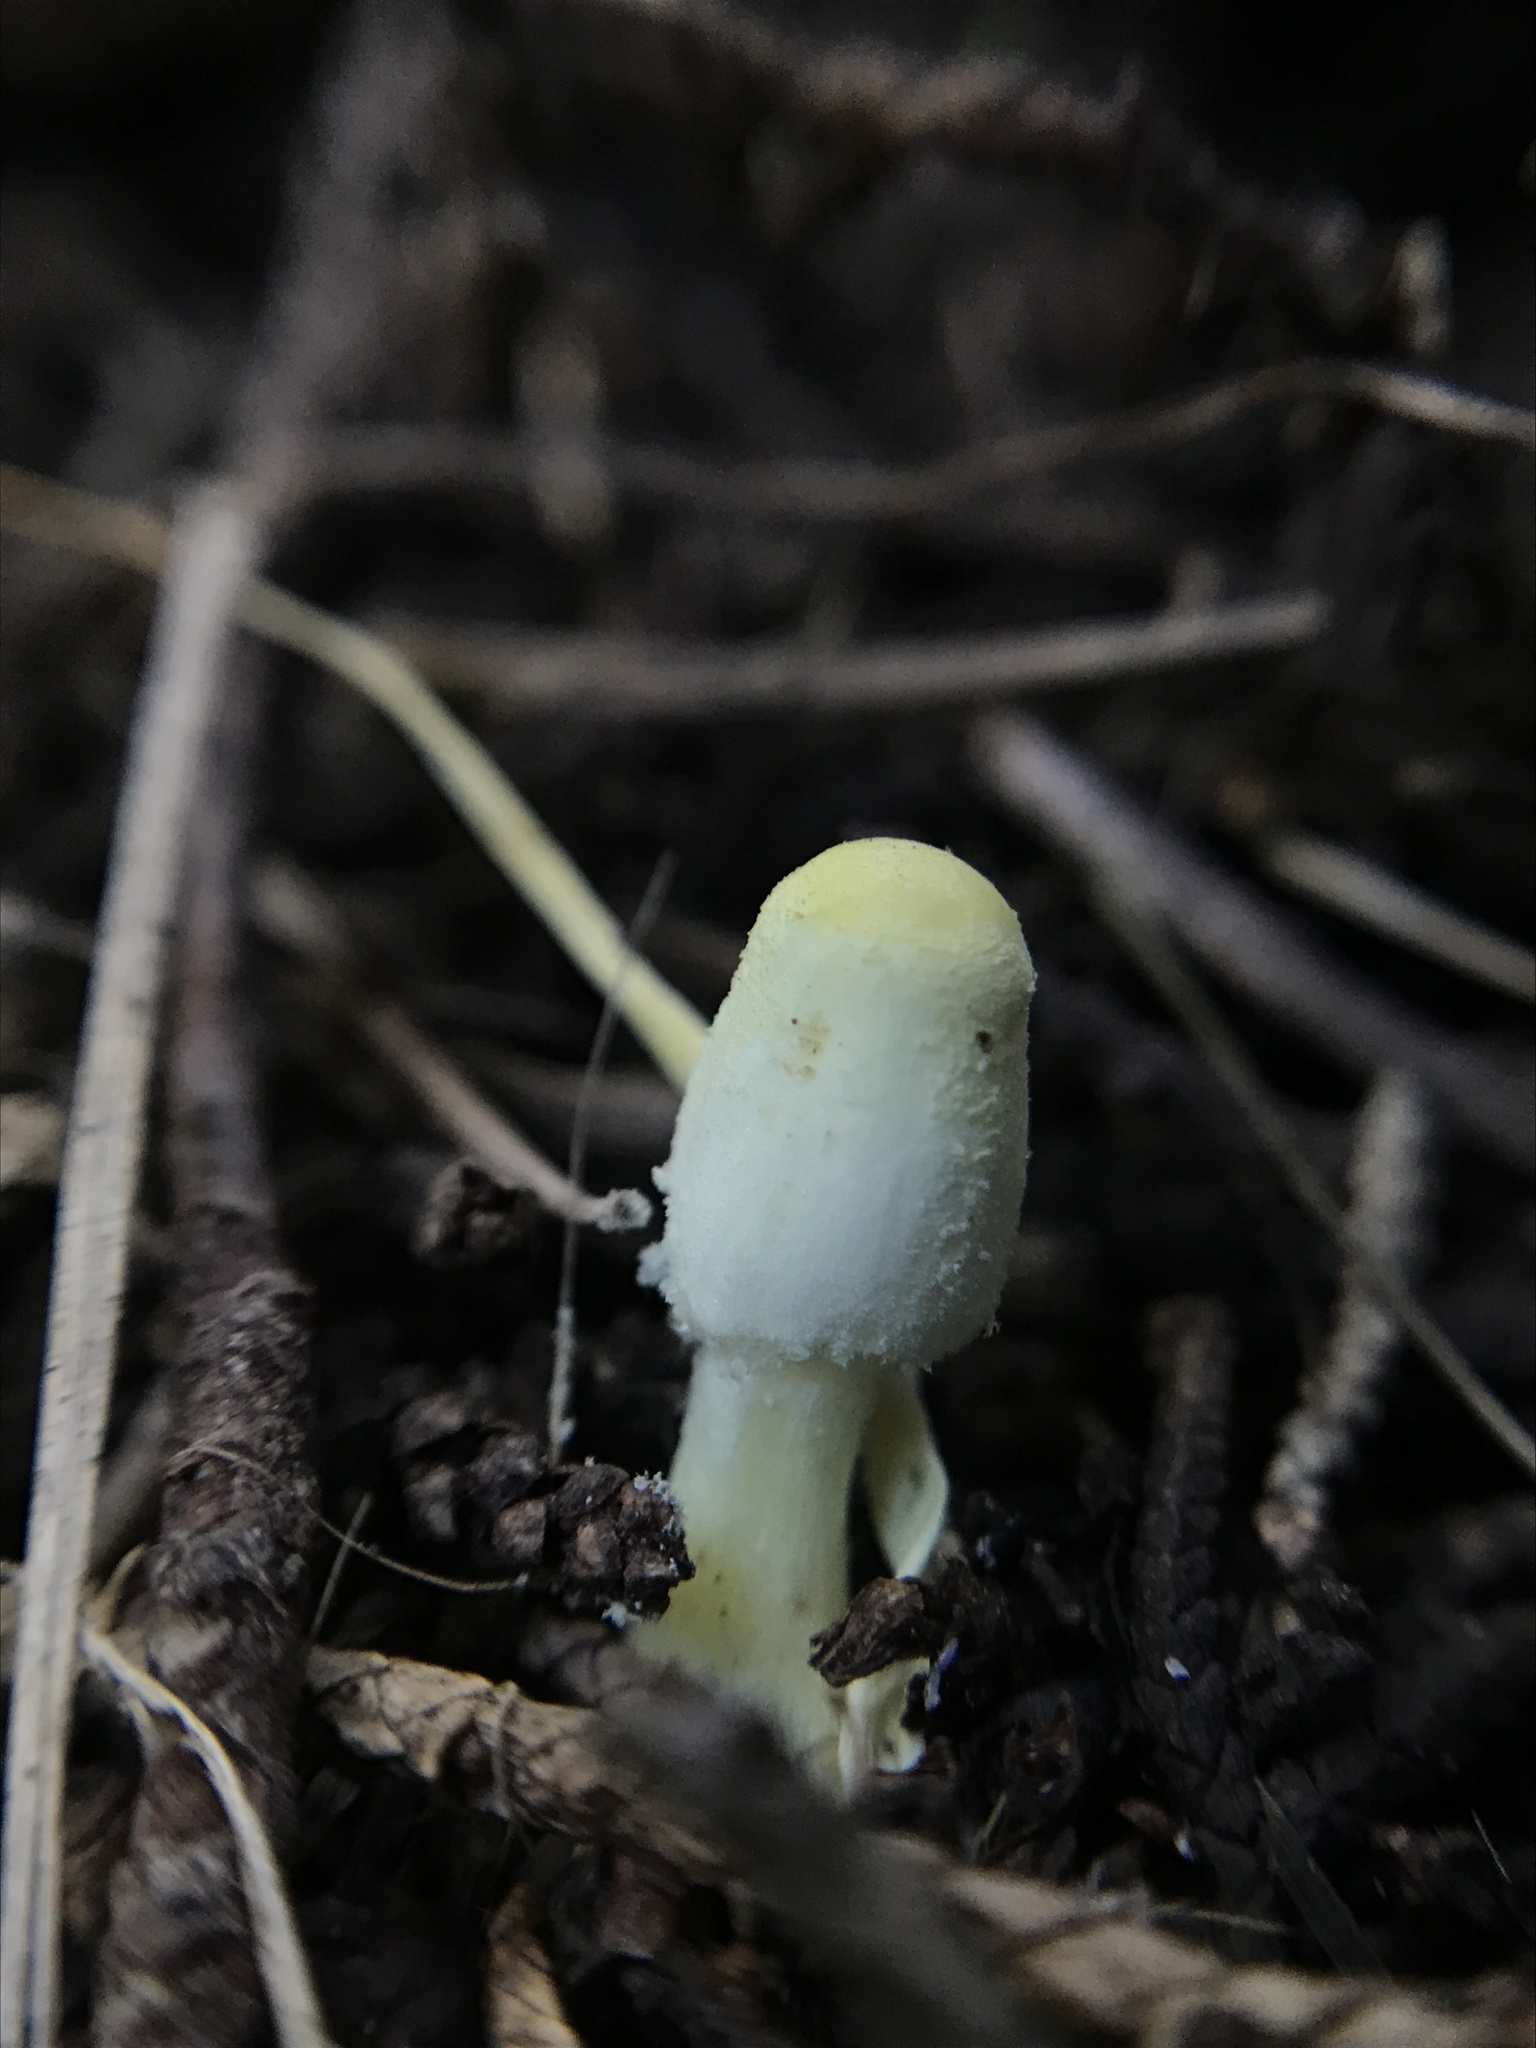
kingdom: Fungi
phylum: Basidiomycota
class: Agaricomycetes
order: Agaricales
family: Agaricaceae
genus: Leucocoprinus
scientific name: Leucocoprinus birnbaumii
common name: Plantpot dapperling
